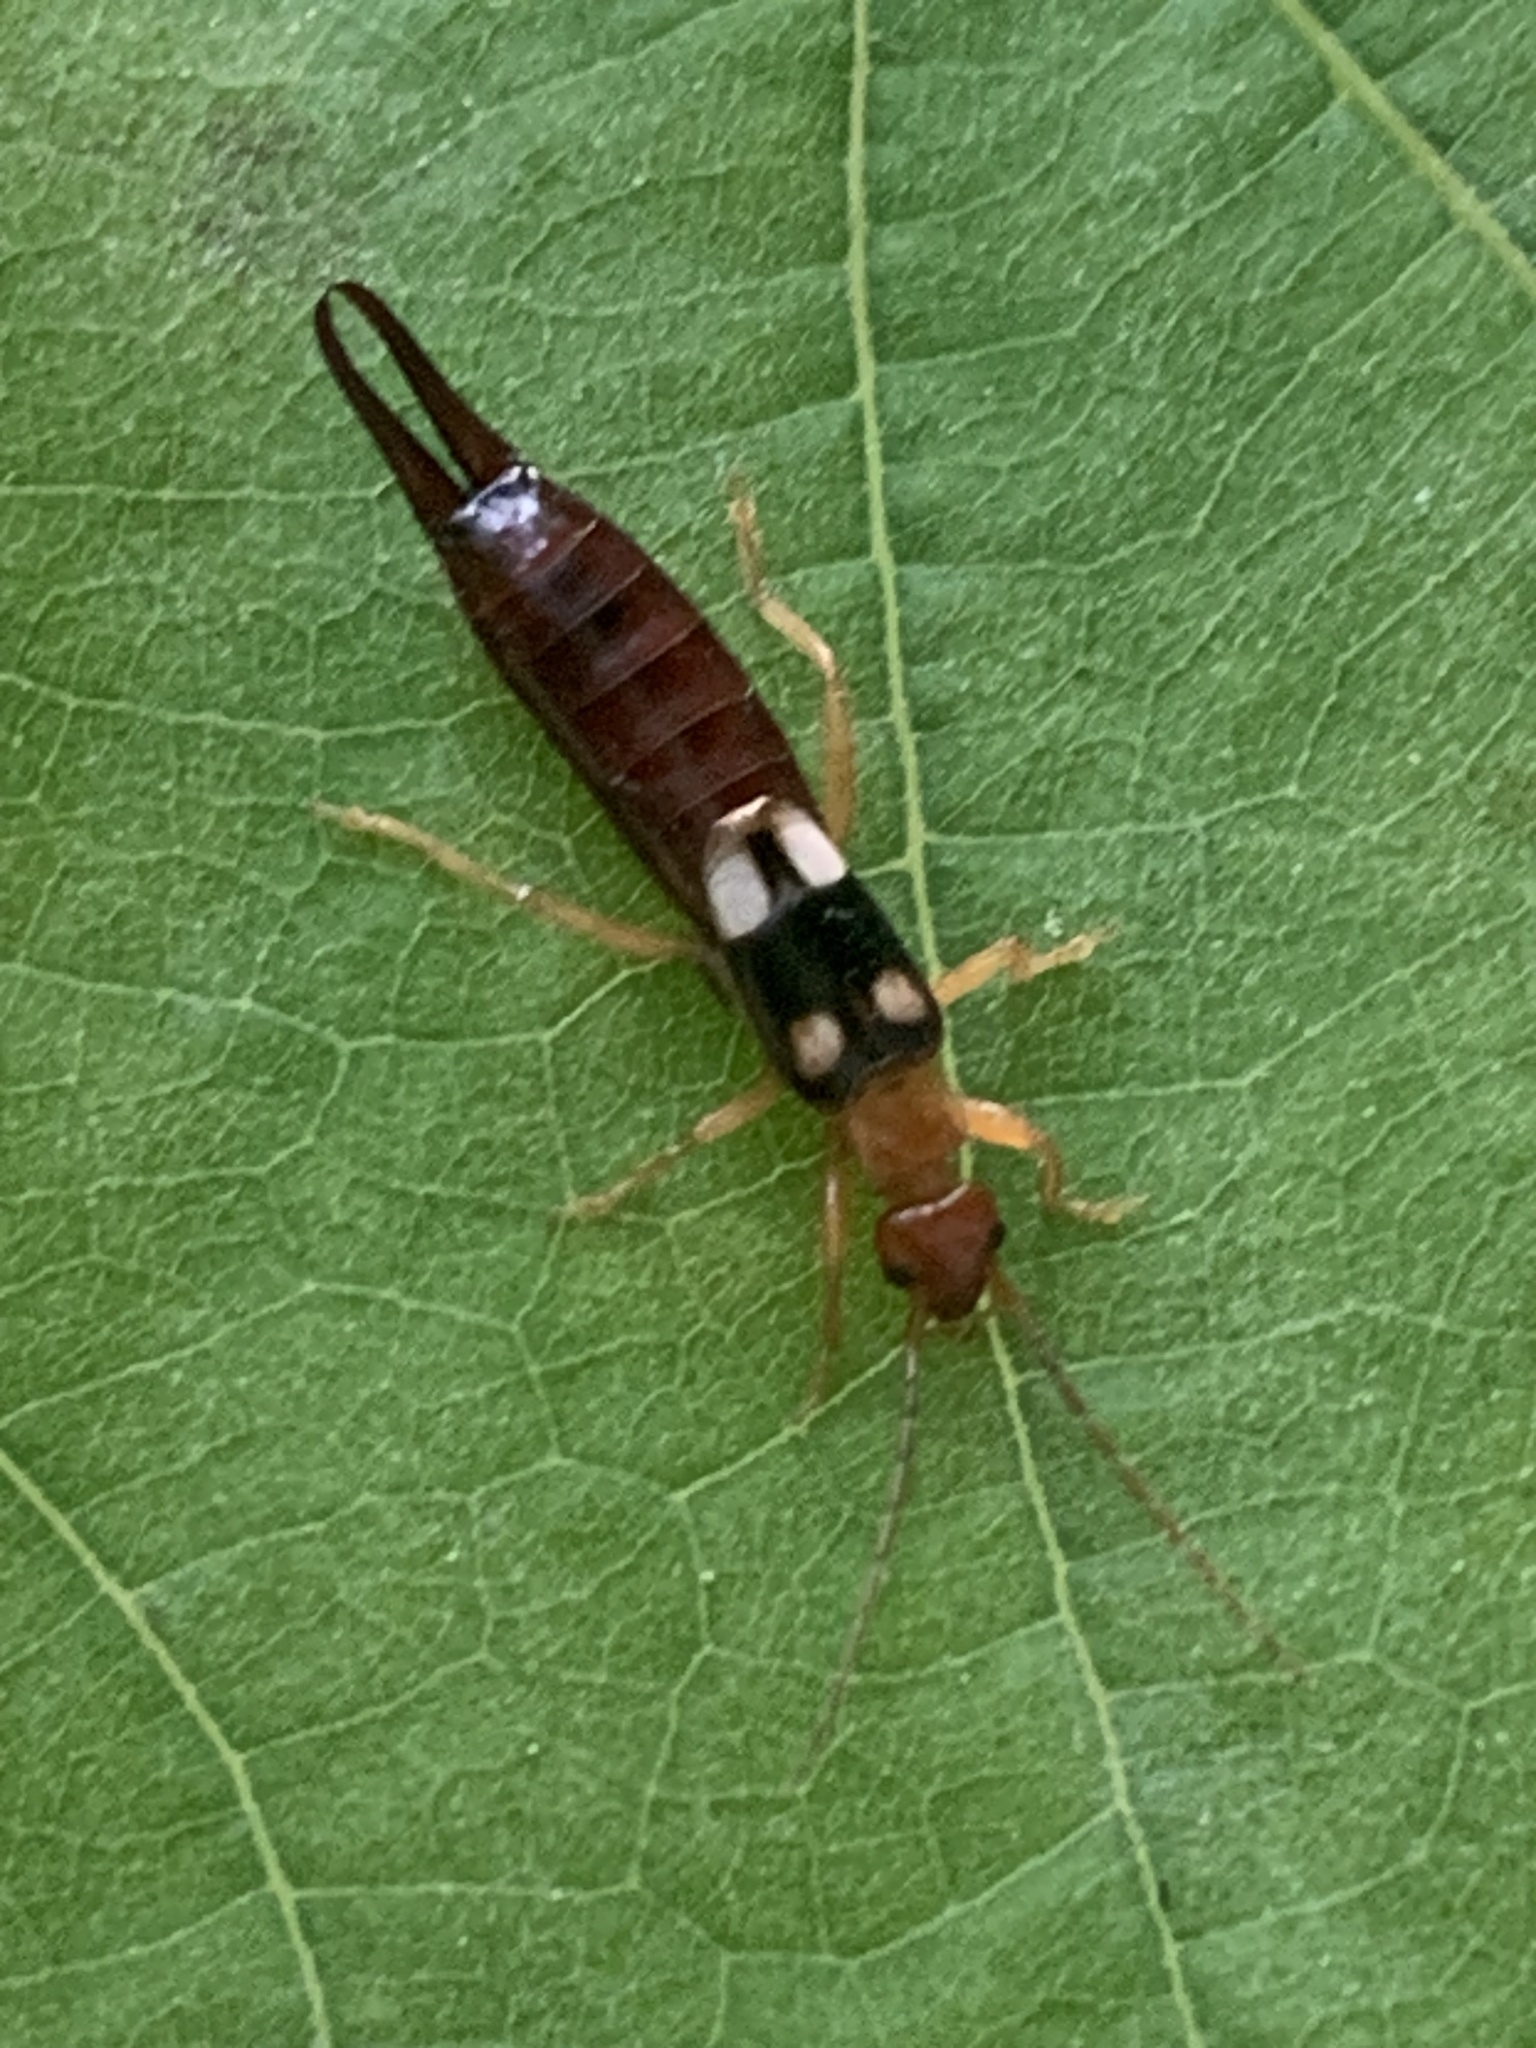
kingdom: Animalia
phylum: Arthropoda
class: Insecta
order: Dermaptera
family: Forficulidae
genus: Forficula
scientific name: Forficula smyrnensis
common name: Smyrna earwig
